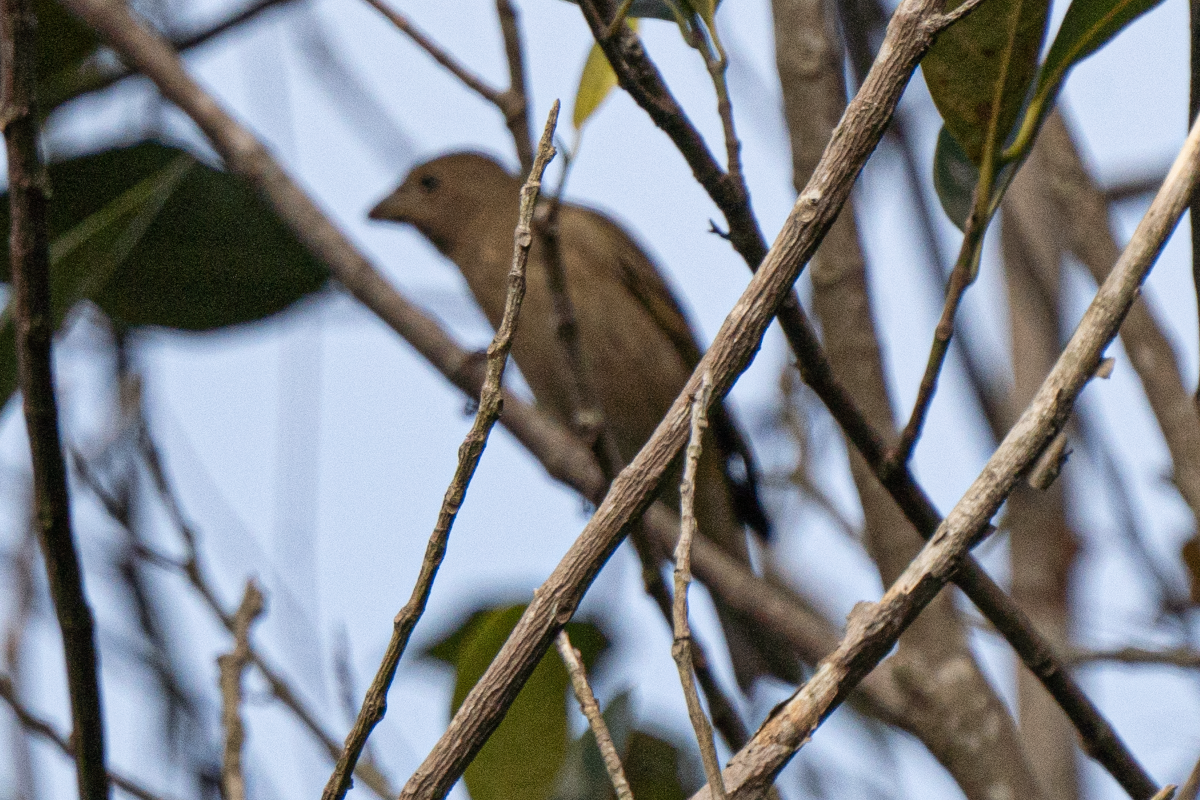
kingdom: Animalia
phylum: Chordata
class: Aves
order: Passeriformes
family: Fringillidae
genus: Carpodacus
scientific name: Carpodacus erythrinus
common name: Common rosefinch
